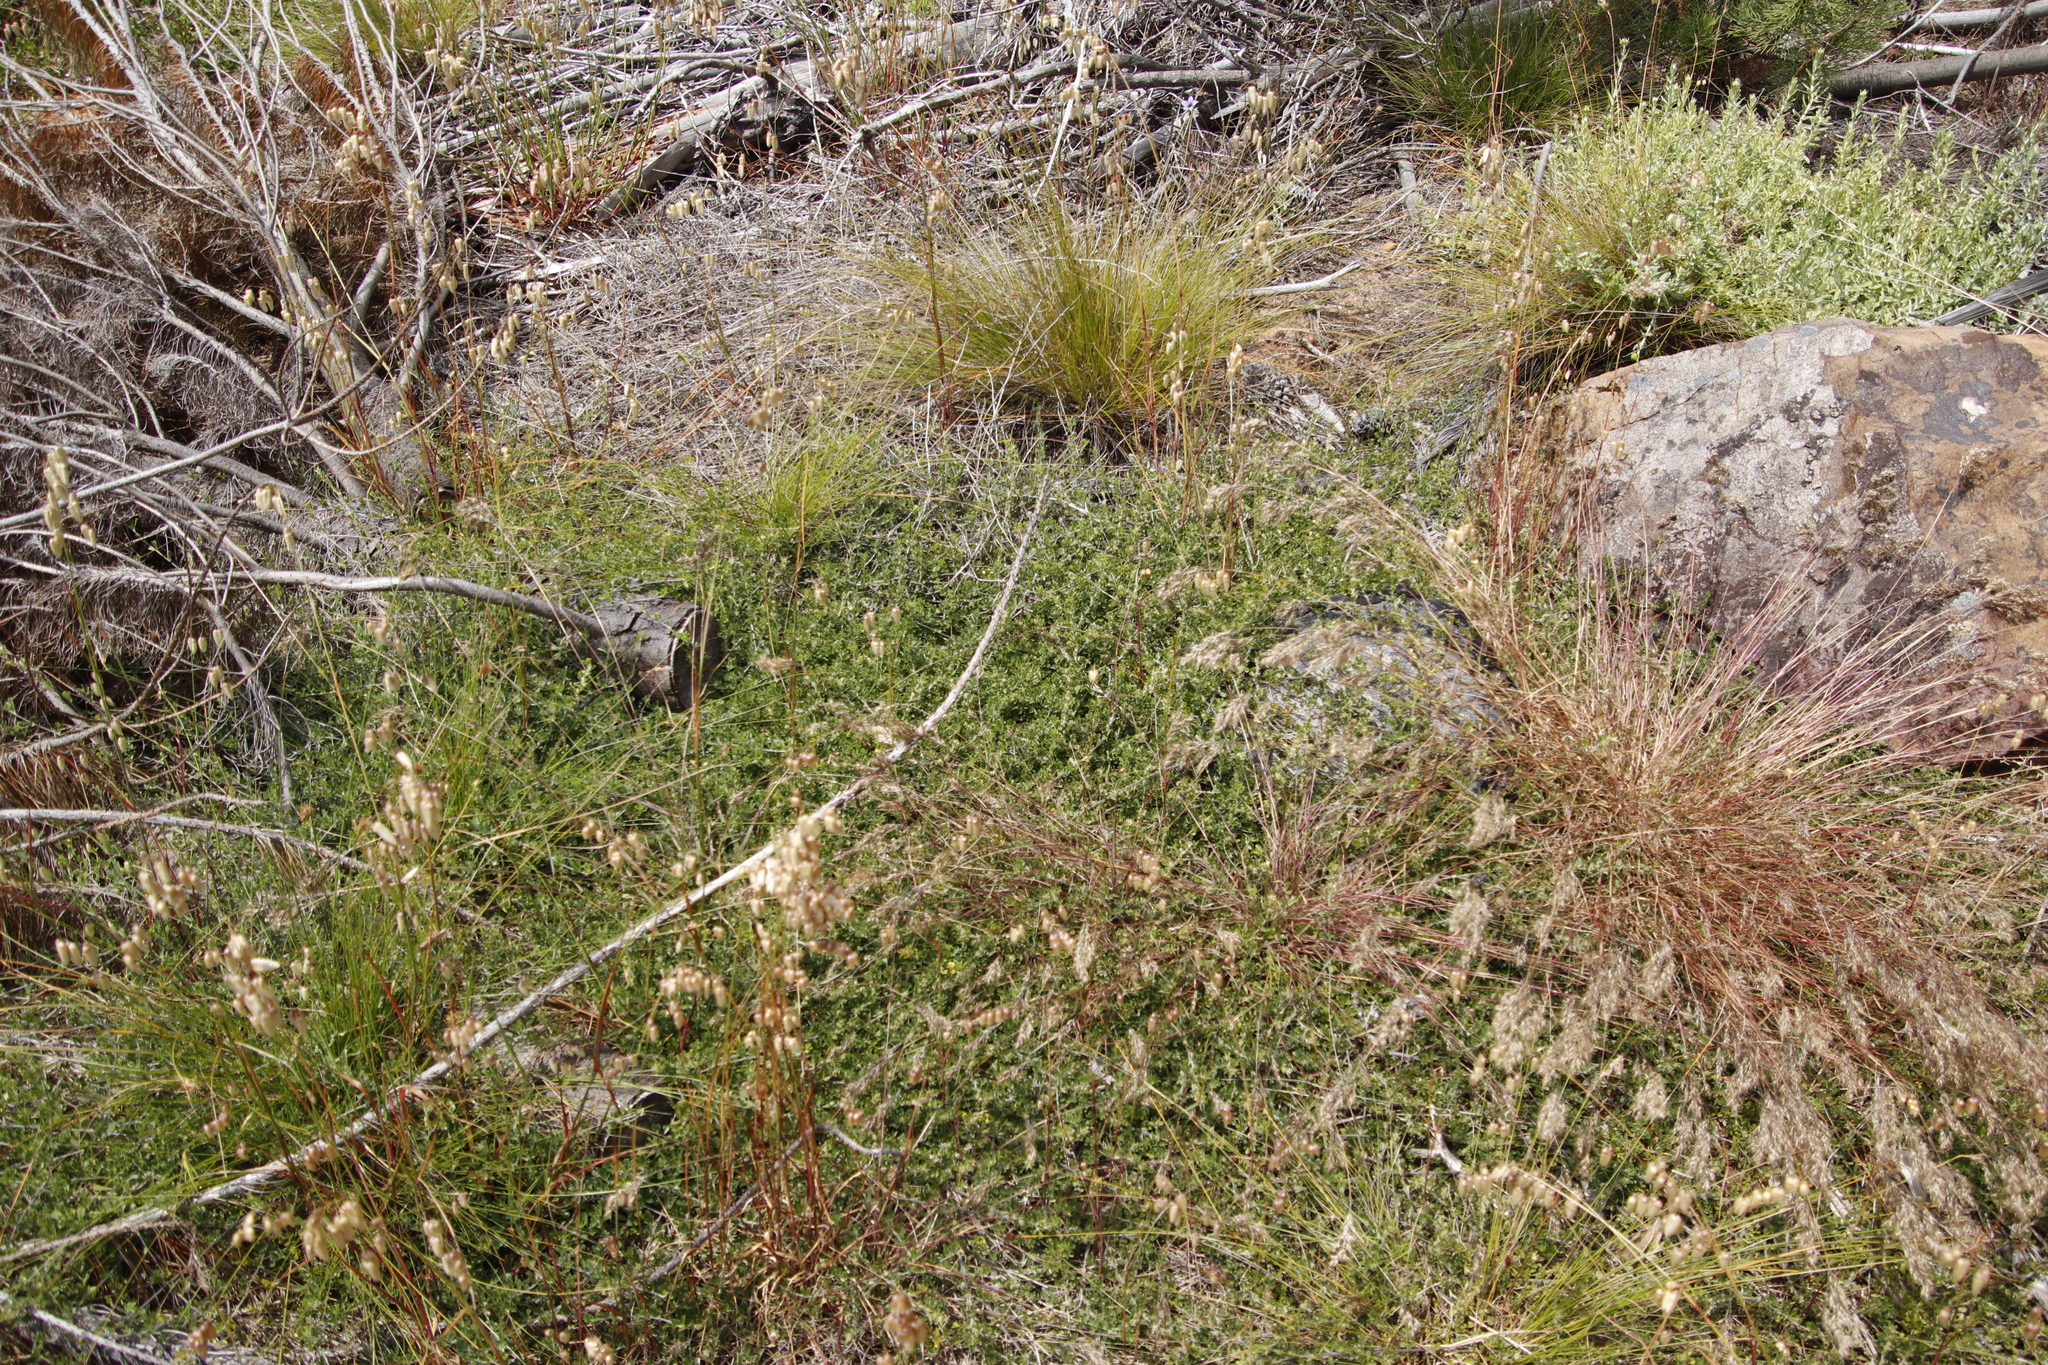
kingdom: Plantae
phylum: Tracheophyta
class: Magnoliopsida
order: Fabales
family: Fabaceae
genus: Psoralea
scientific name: Psoralea
